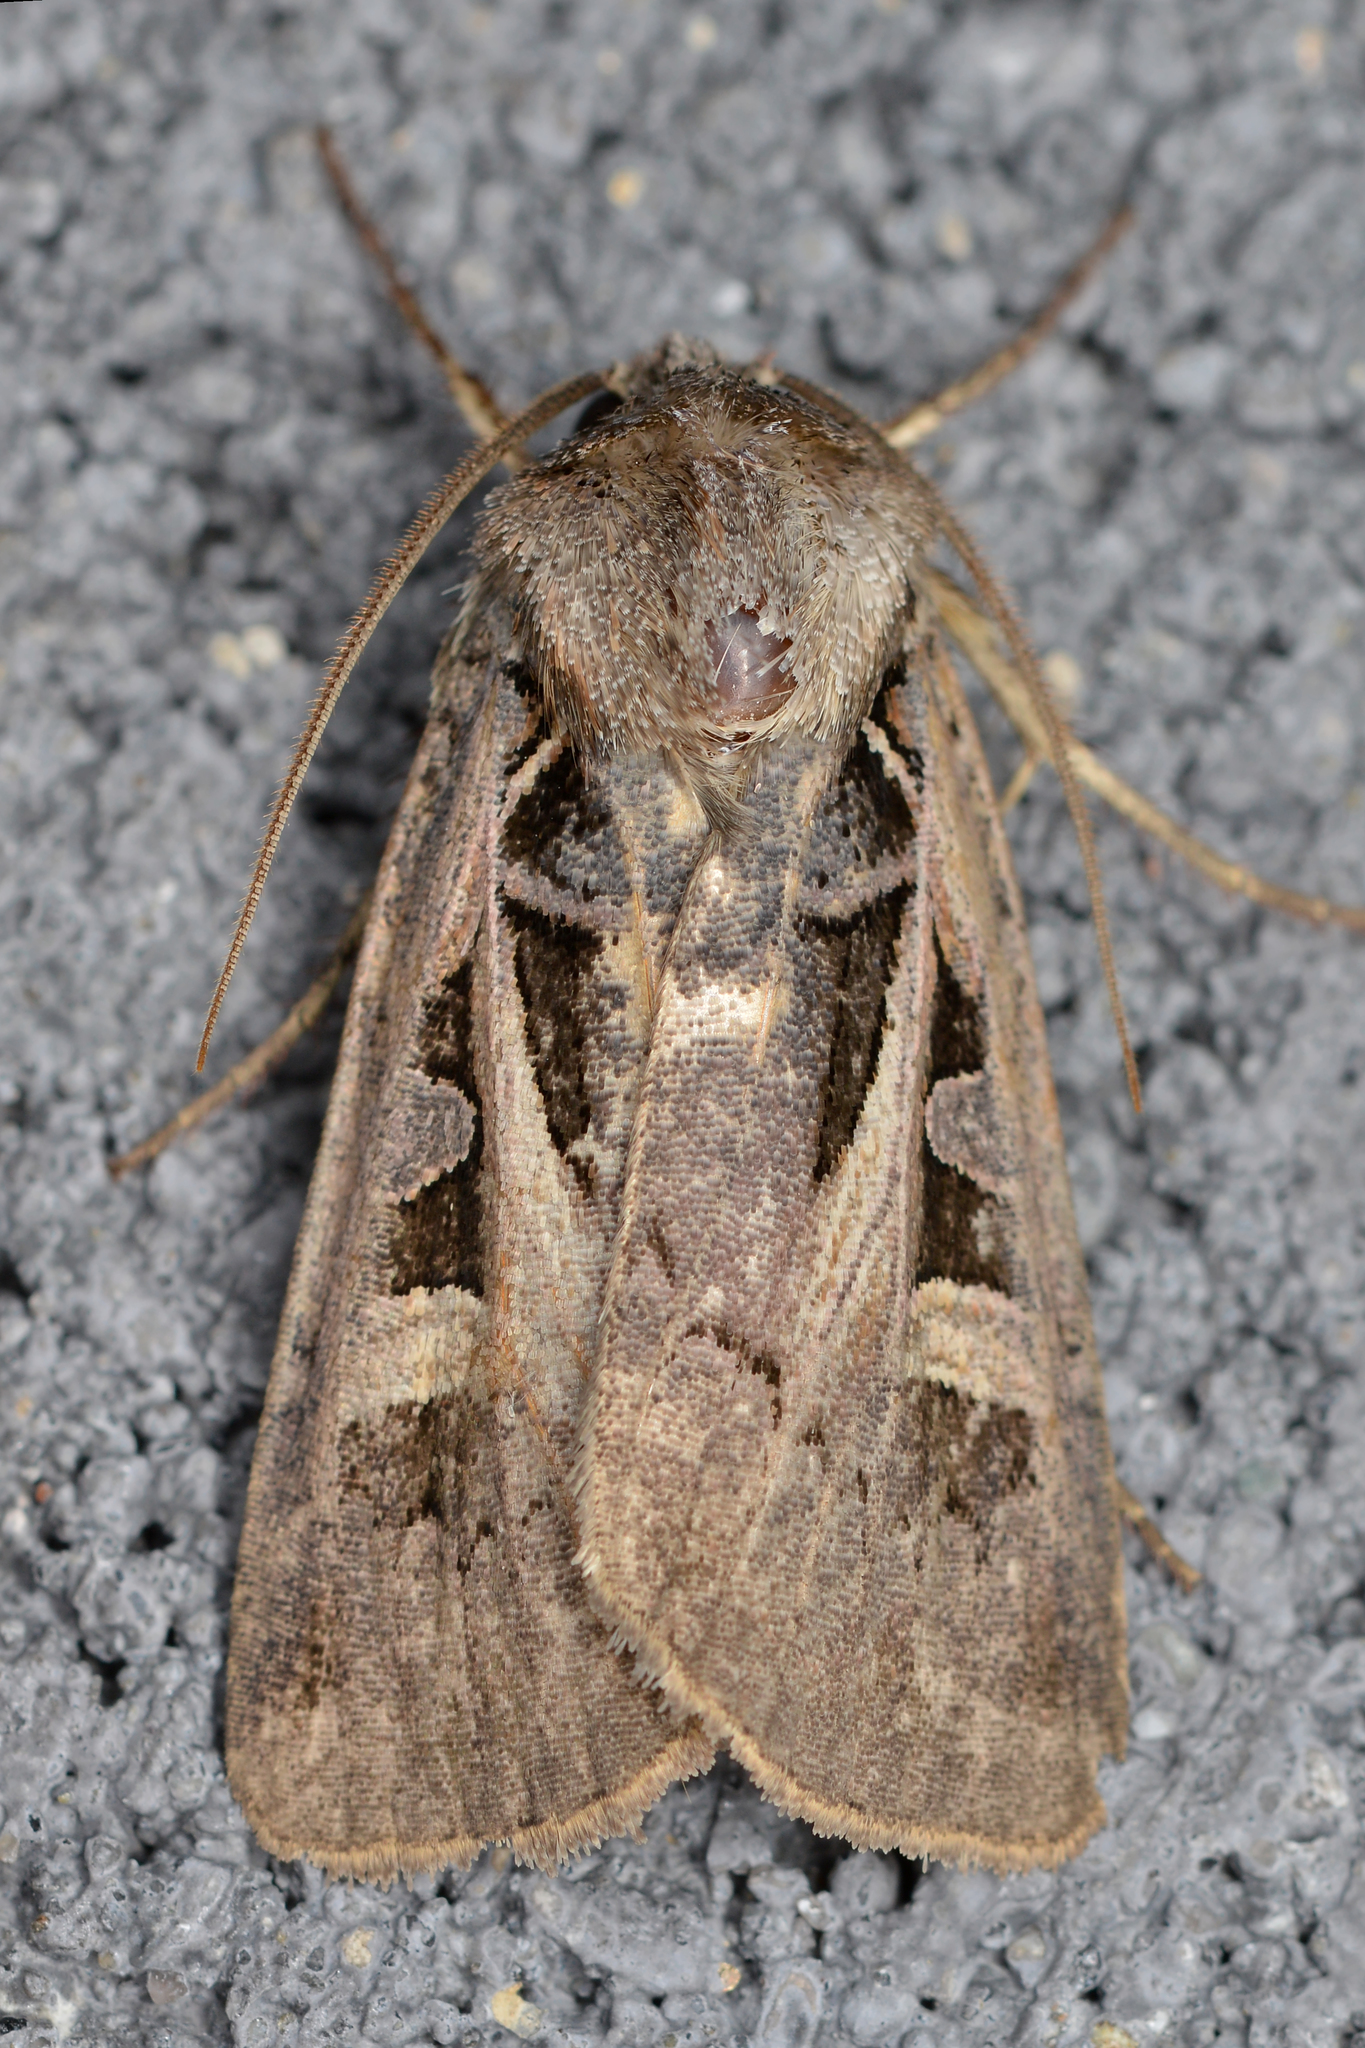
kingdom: Animalia
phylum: Arthropoda
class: Insecta
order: Lepidoptera
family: Noctuidae
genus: Feltia
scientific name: Feltia herilis
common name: Master's dart
